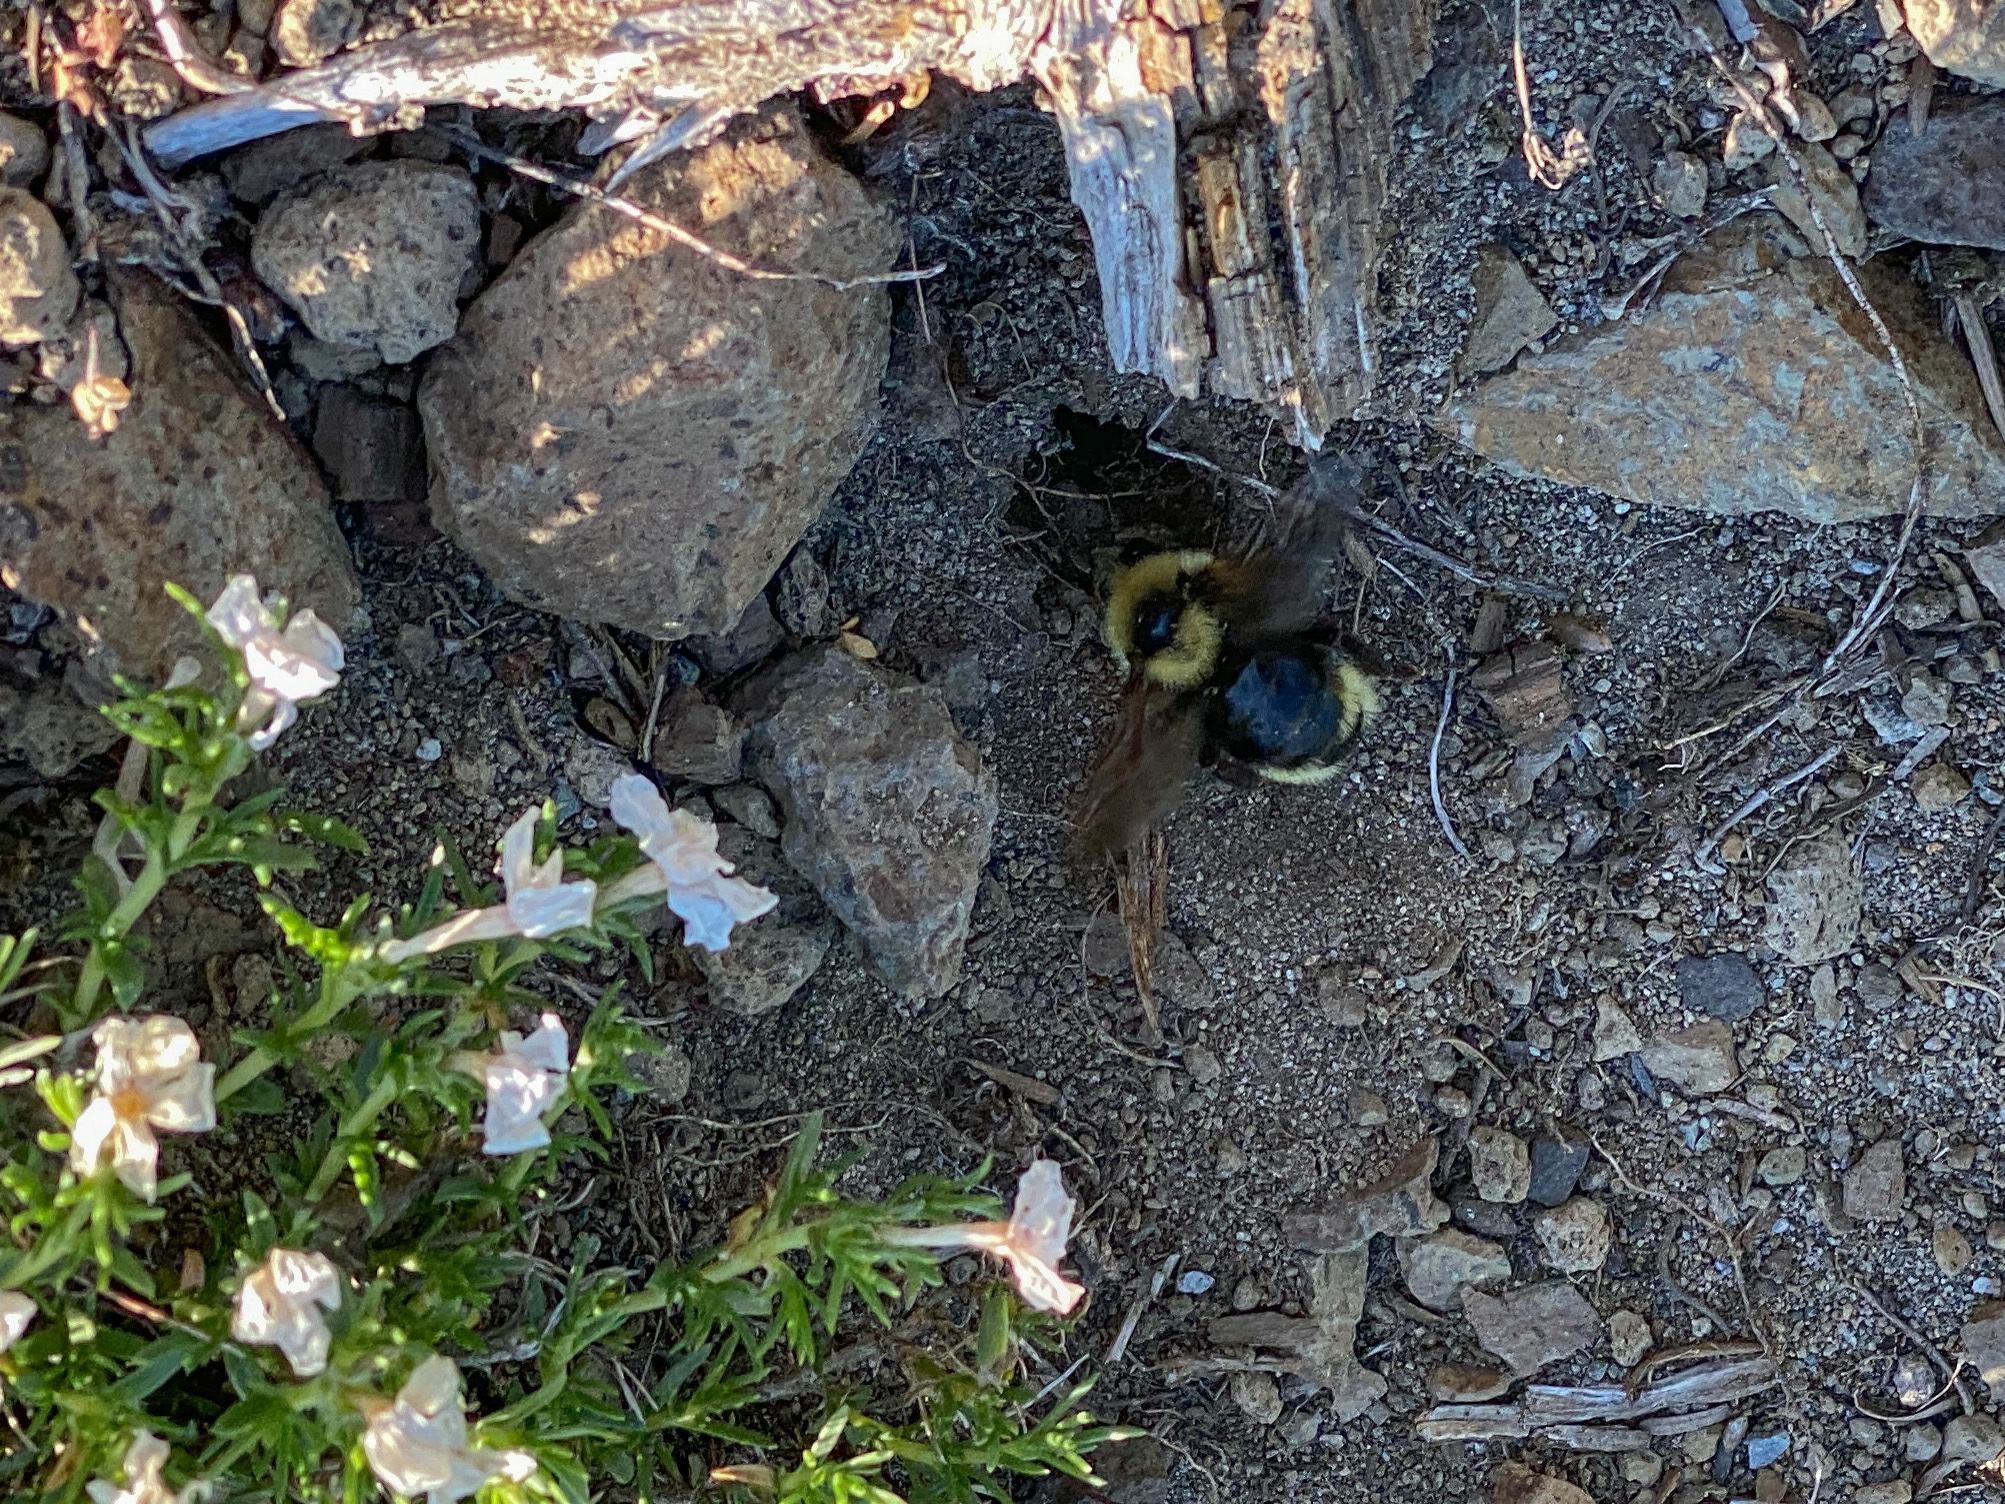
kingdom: Animalia
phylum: Arthropoda
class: Insecta
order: Hymenoptera
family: Apidae
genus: Bombus
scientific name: Bombus insularis
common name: Indiscriminate cuckoo bumble bee
